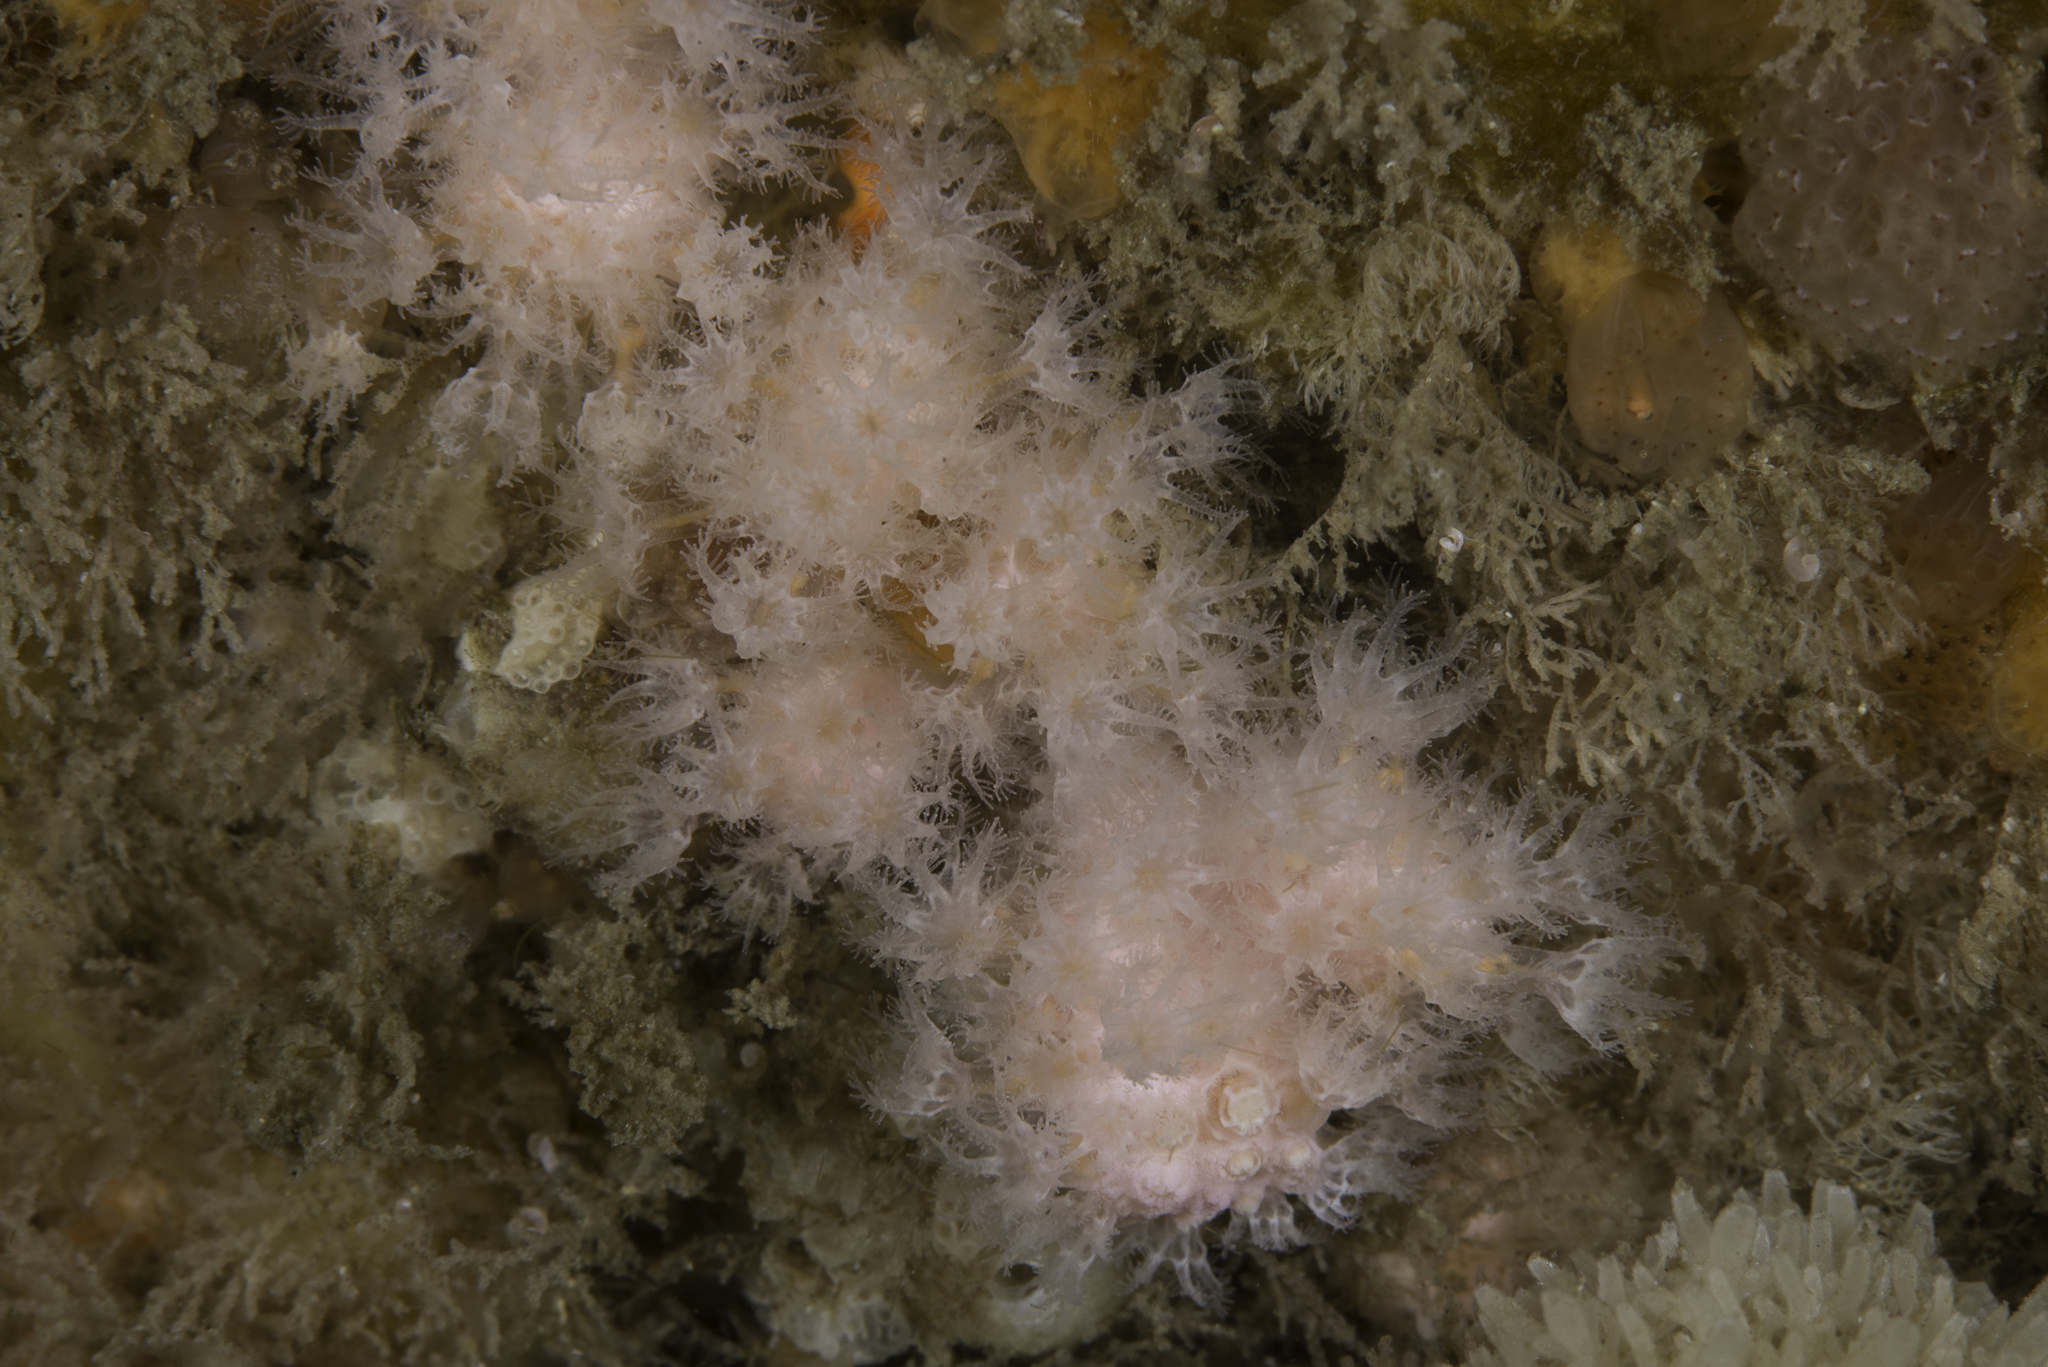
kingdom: Animalia
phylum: Cnidaria
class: Anthozoa
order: Malacalcyonacea
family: Alcyoniidae
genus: Alcyonium
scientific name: Alcyonium hibernicum
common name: Pink sea fingers
